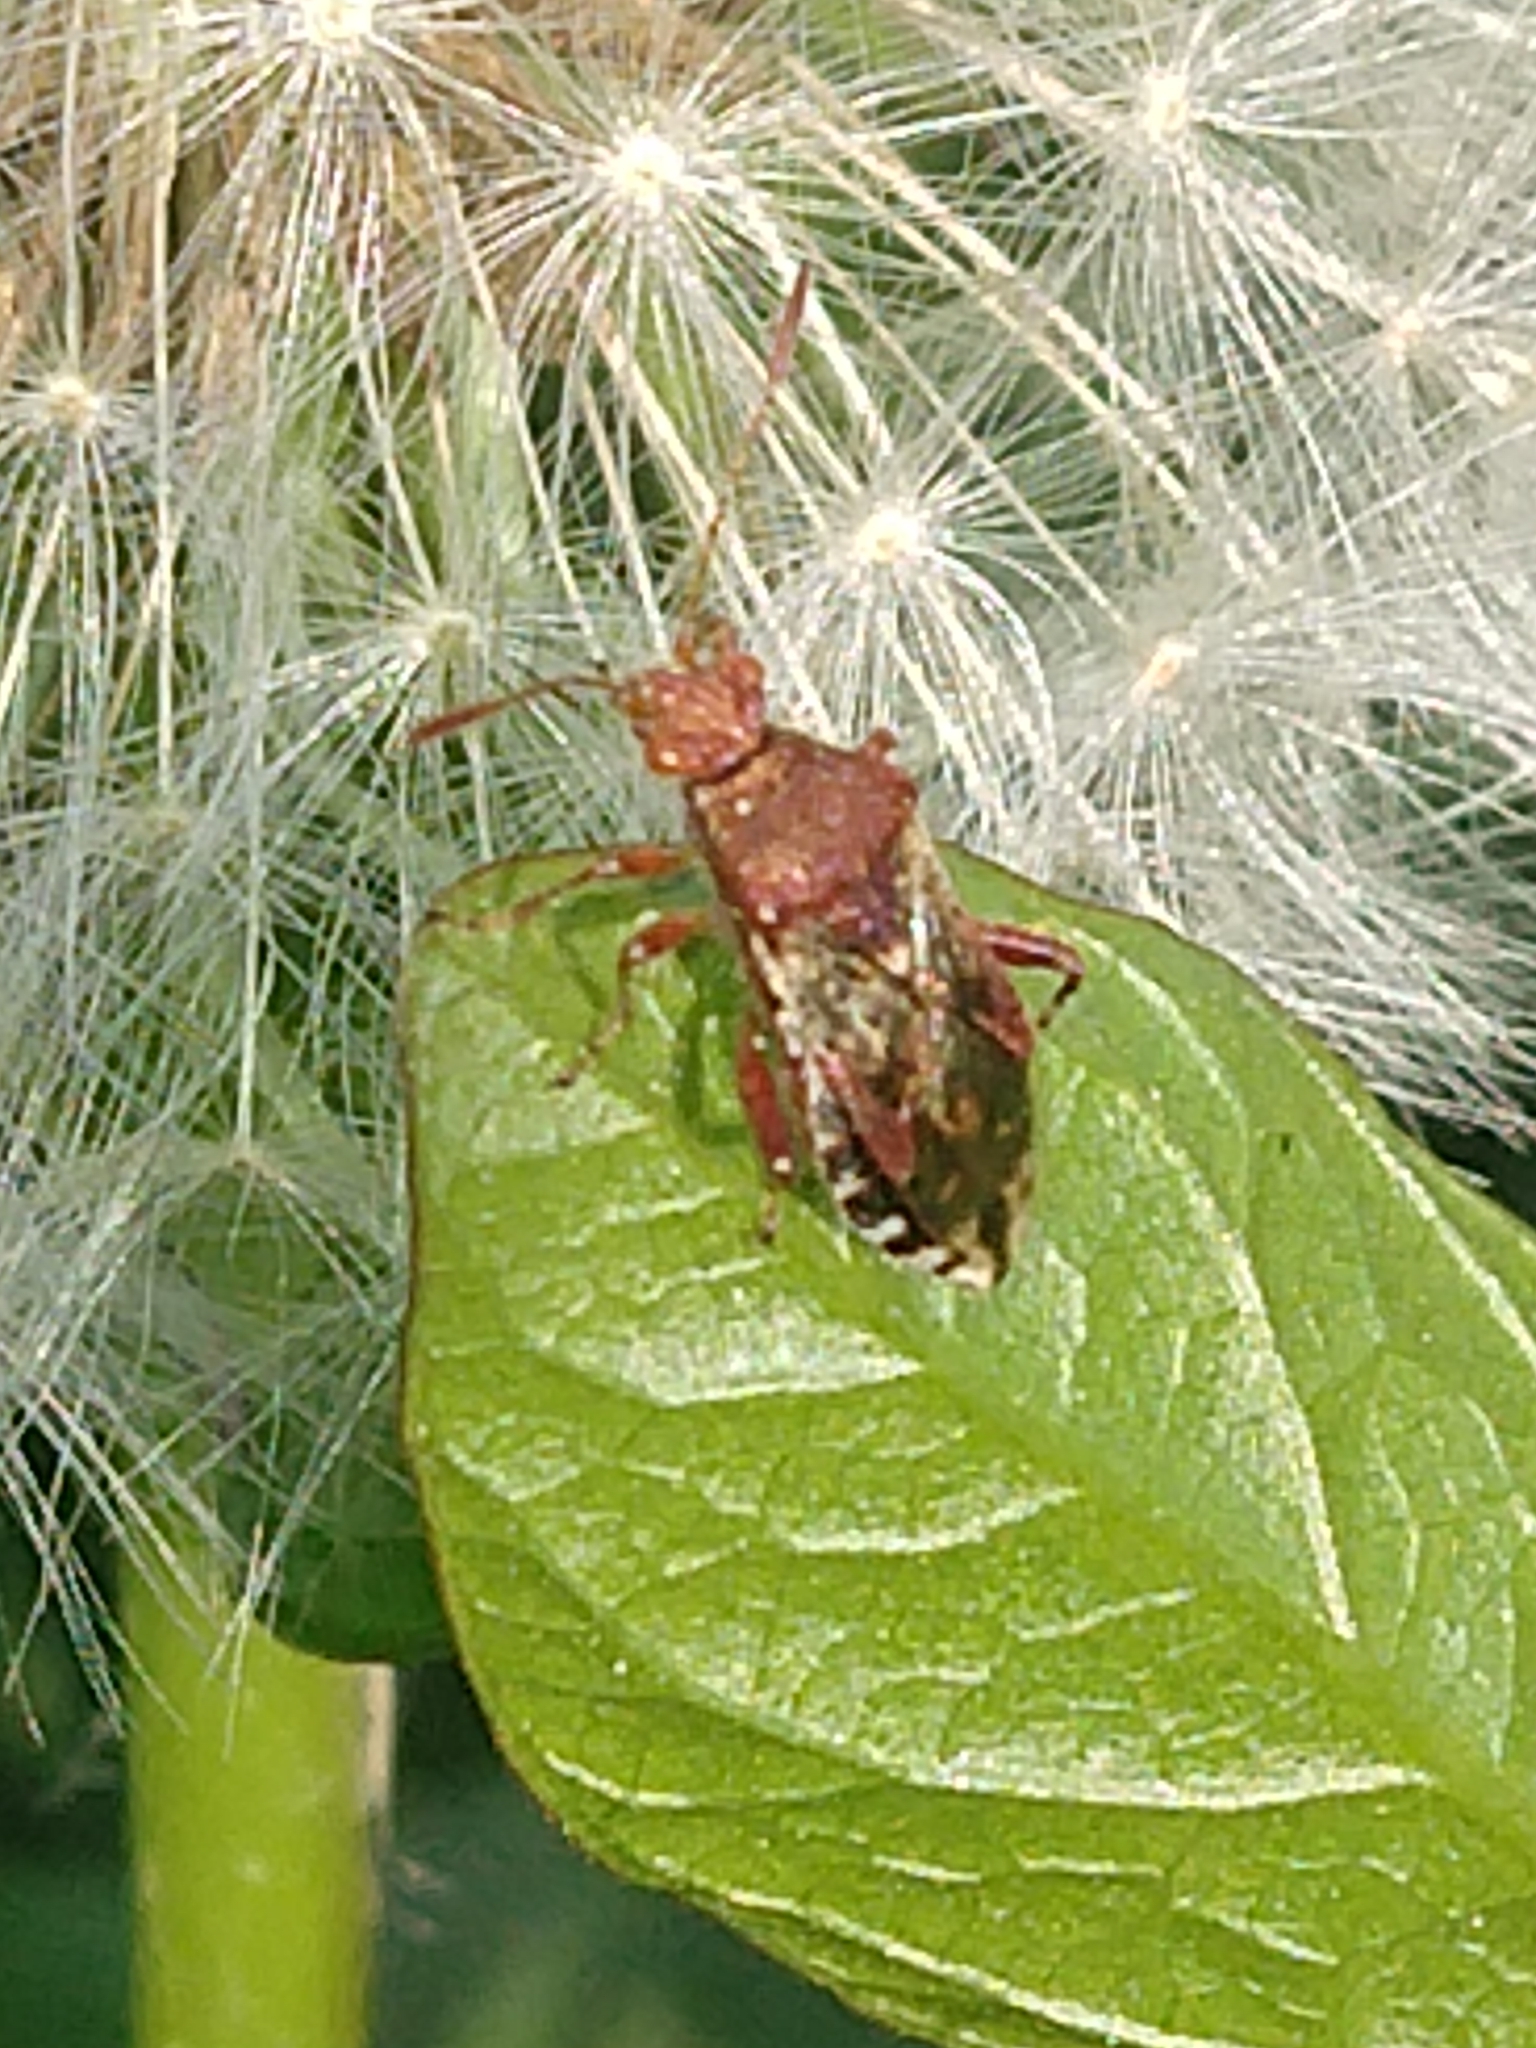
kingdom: Animalia
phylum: Arthropoda
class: Insecta
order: Hemiptera
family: Rhopalidae
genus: Rhopalus
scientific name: Rhopalus subrufus
